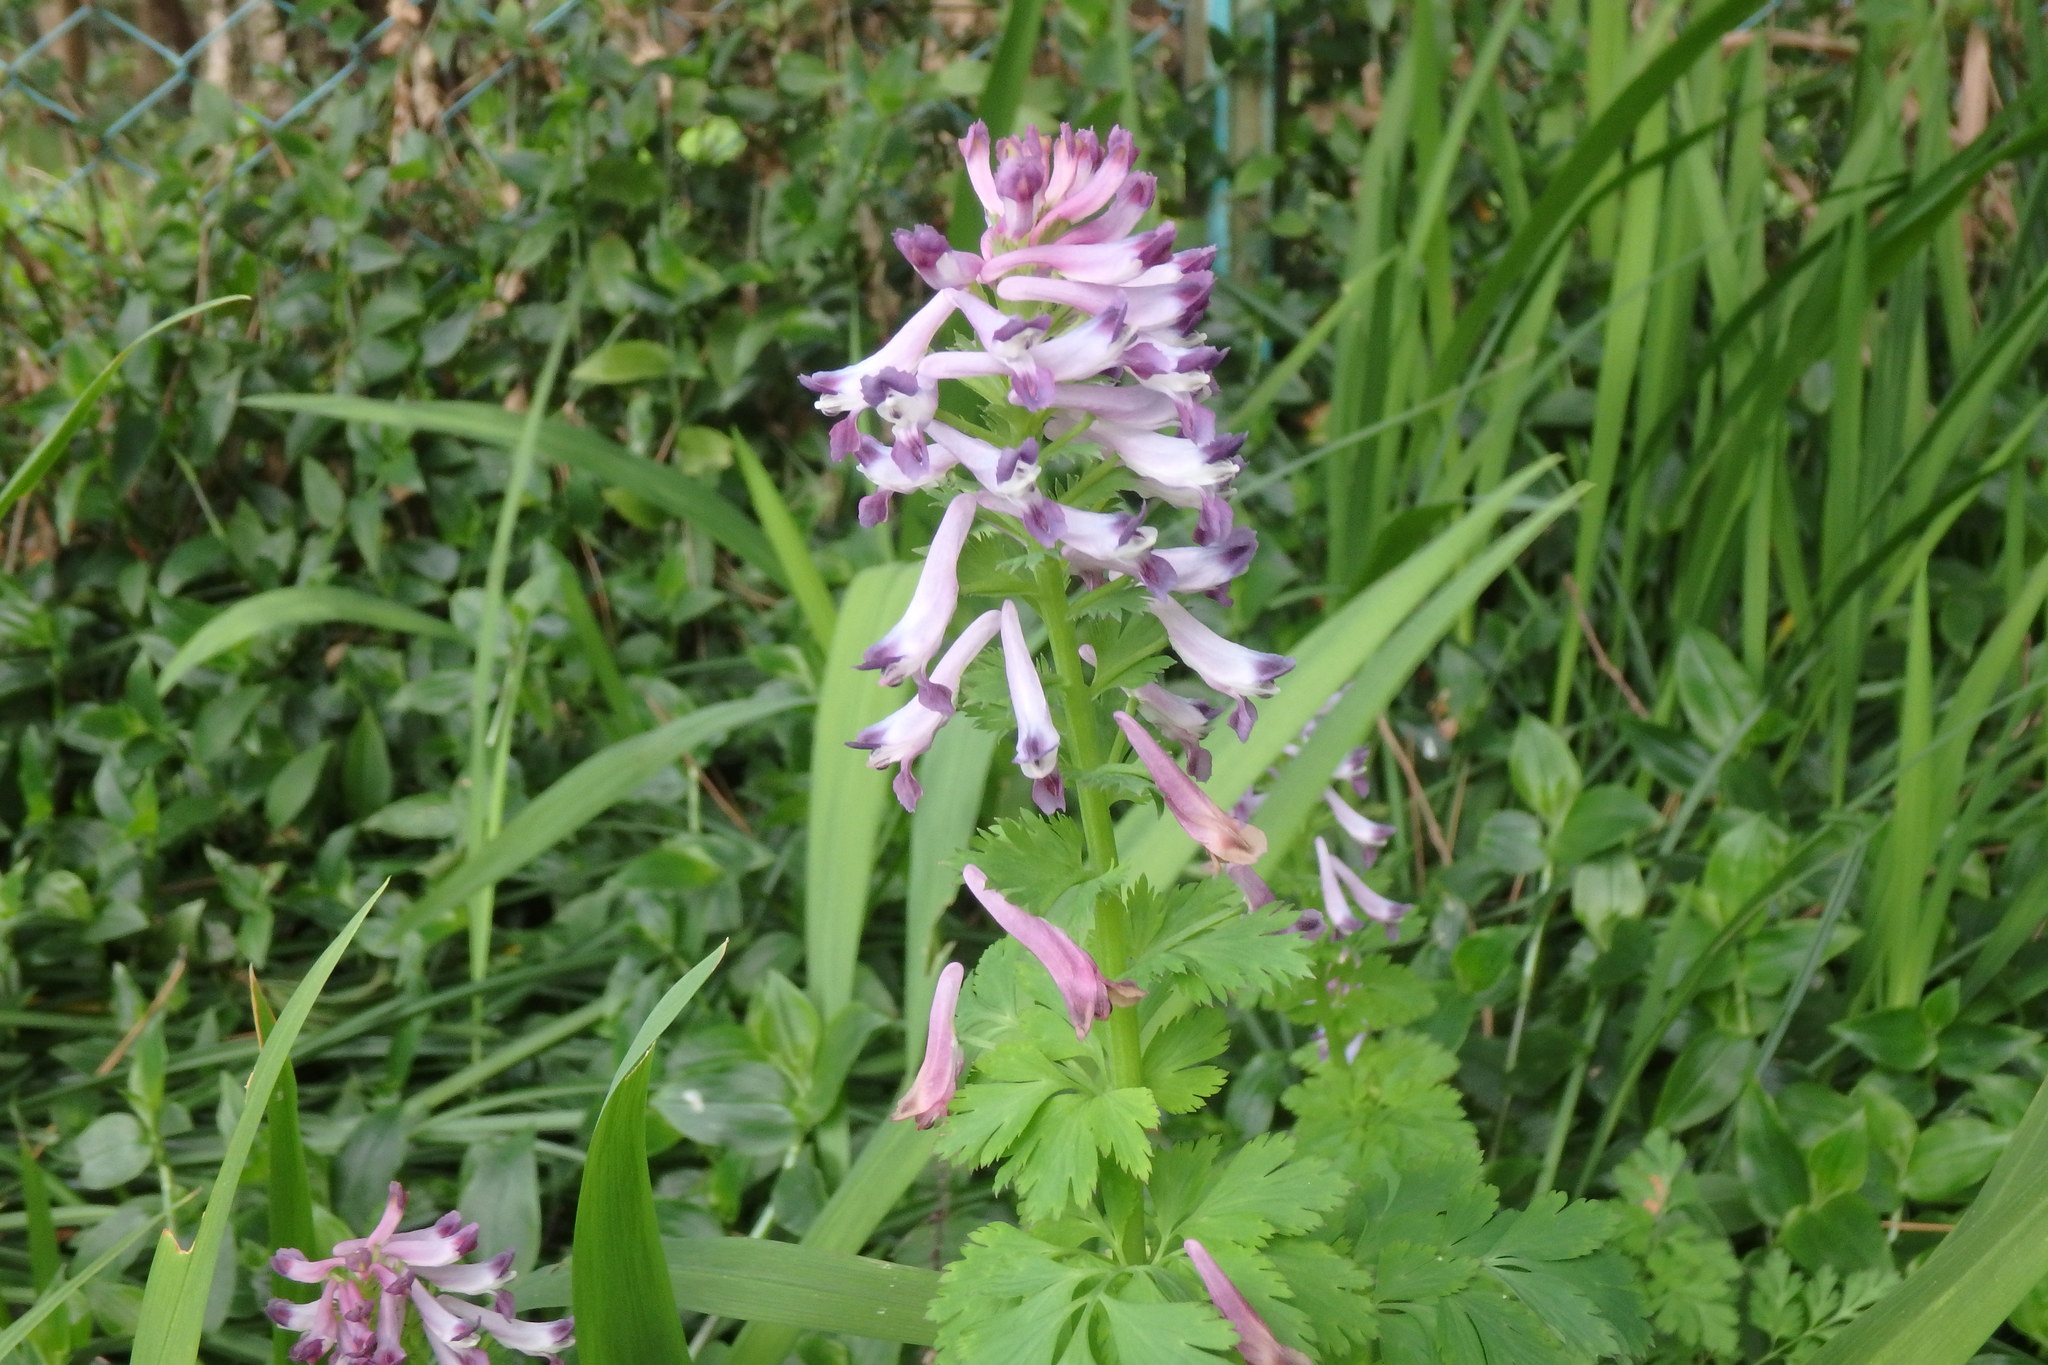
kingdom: Plantae
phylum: Tracheophyta
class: Magnoliopsida
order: Ranunculales
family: Papaveraceae
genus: Corydalis
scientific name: Corydalis incisa
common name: Incised fumewort
